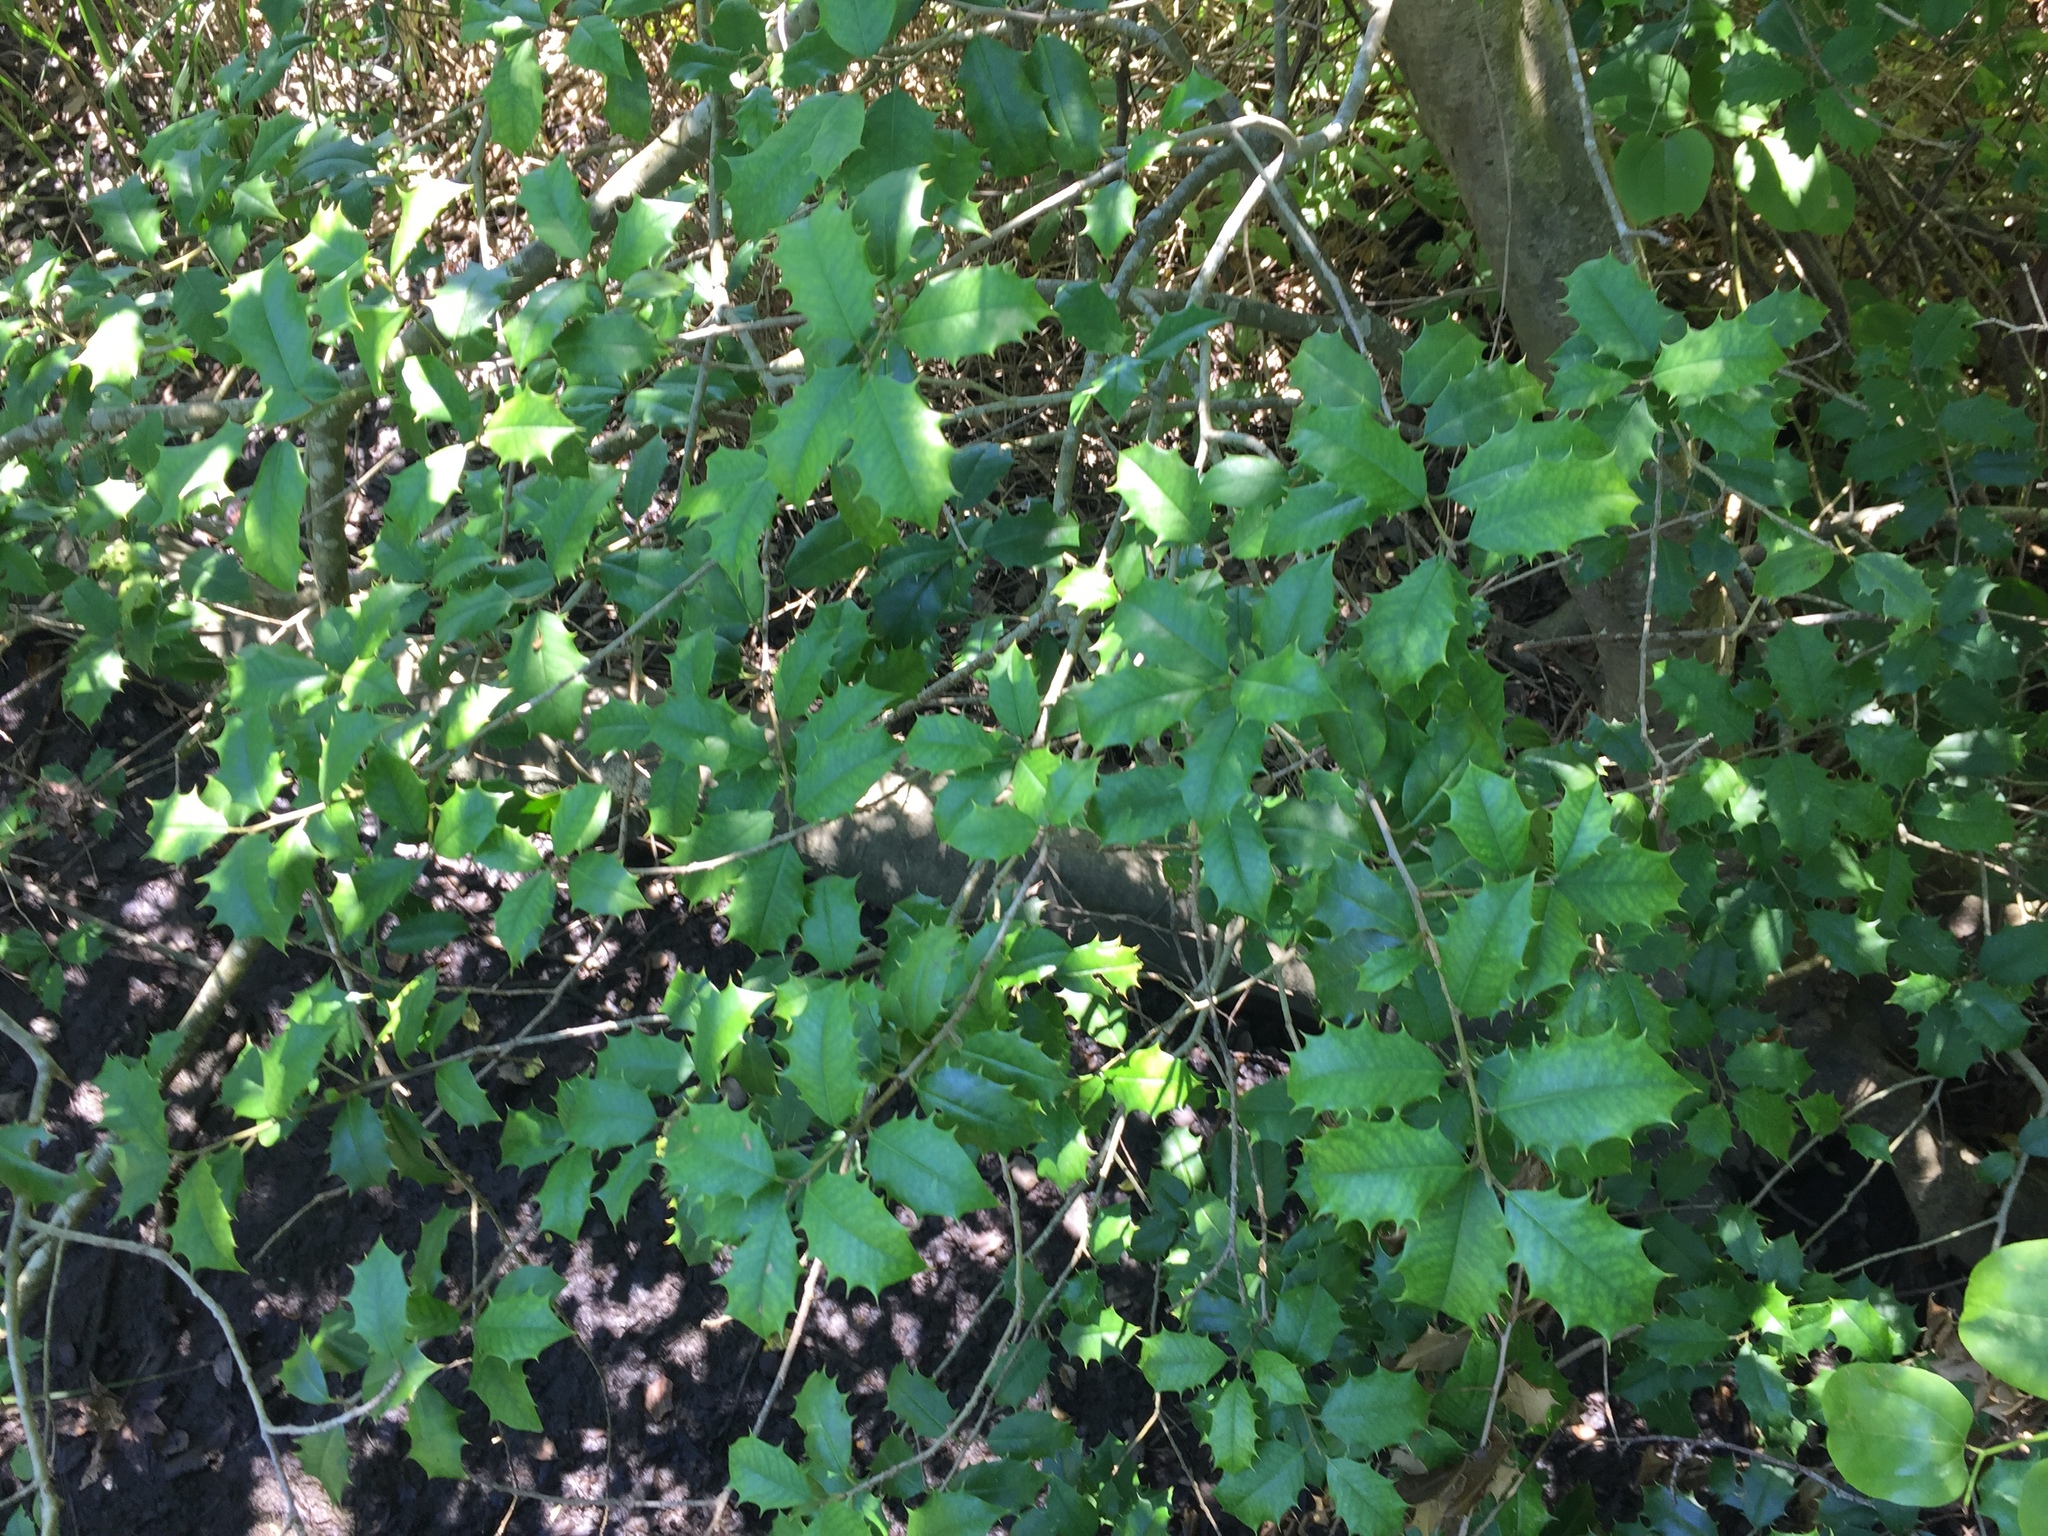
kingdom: Plantae
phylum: Tracheophyta
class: Magnoliopsida
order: Aquifoliales
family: Aquifoliaceae
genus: Ilex
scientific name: Ilex opaca
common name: American holly
